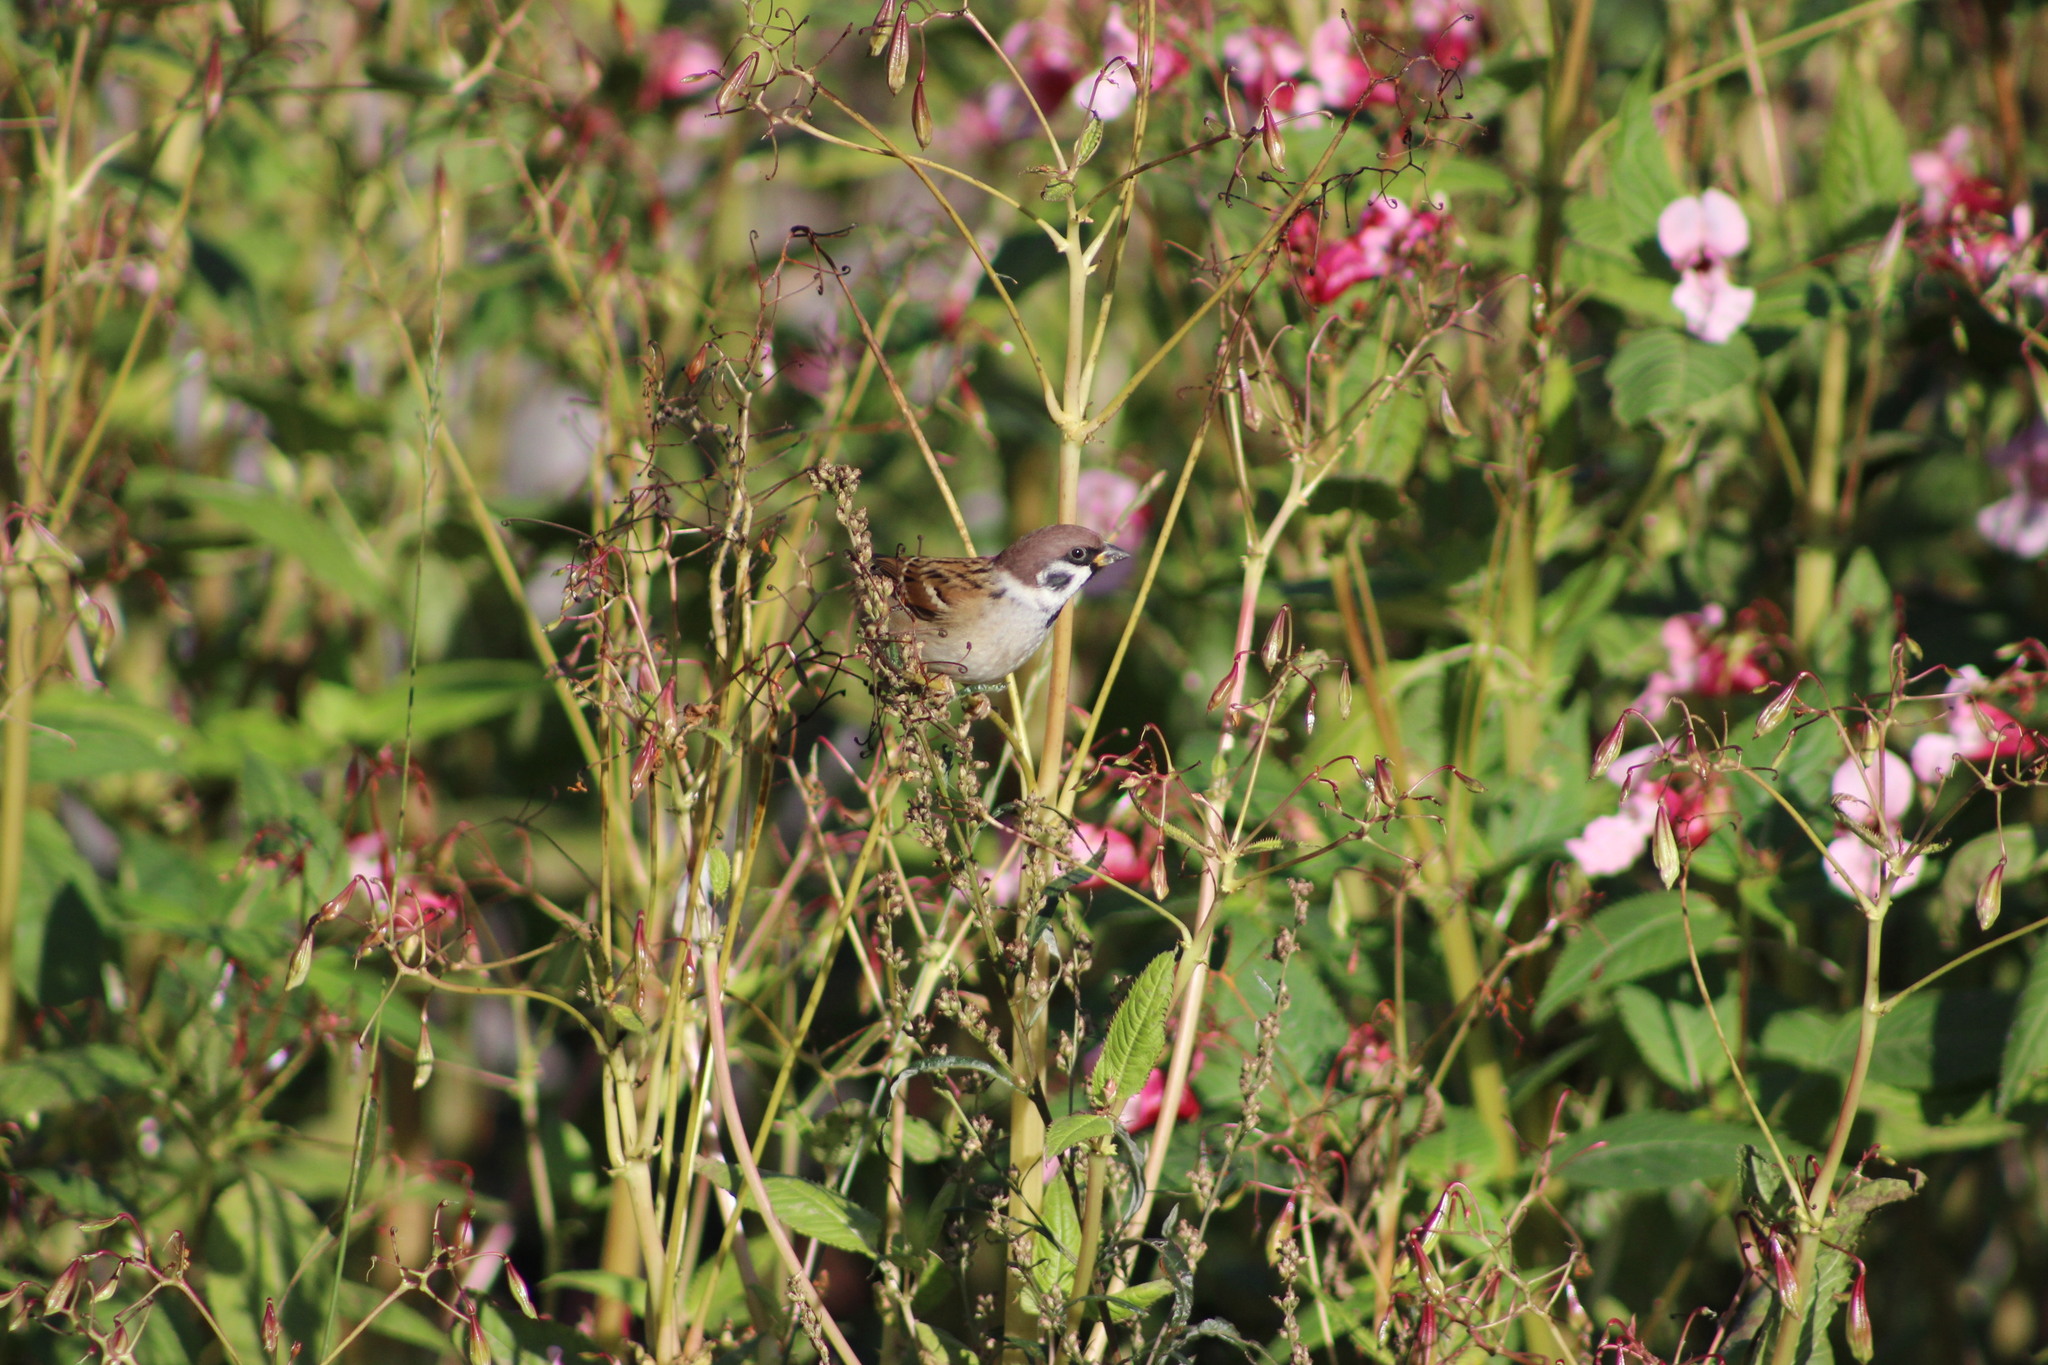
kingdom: Animalia
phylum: Chordata
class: Aves
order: Passeriformes
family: Passeridae
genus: Passer
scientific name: Passer montanus
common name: Eurasian tree sparrow
